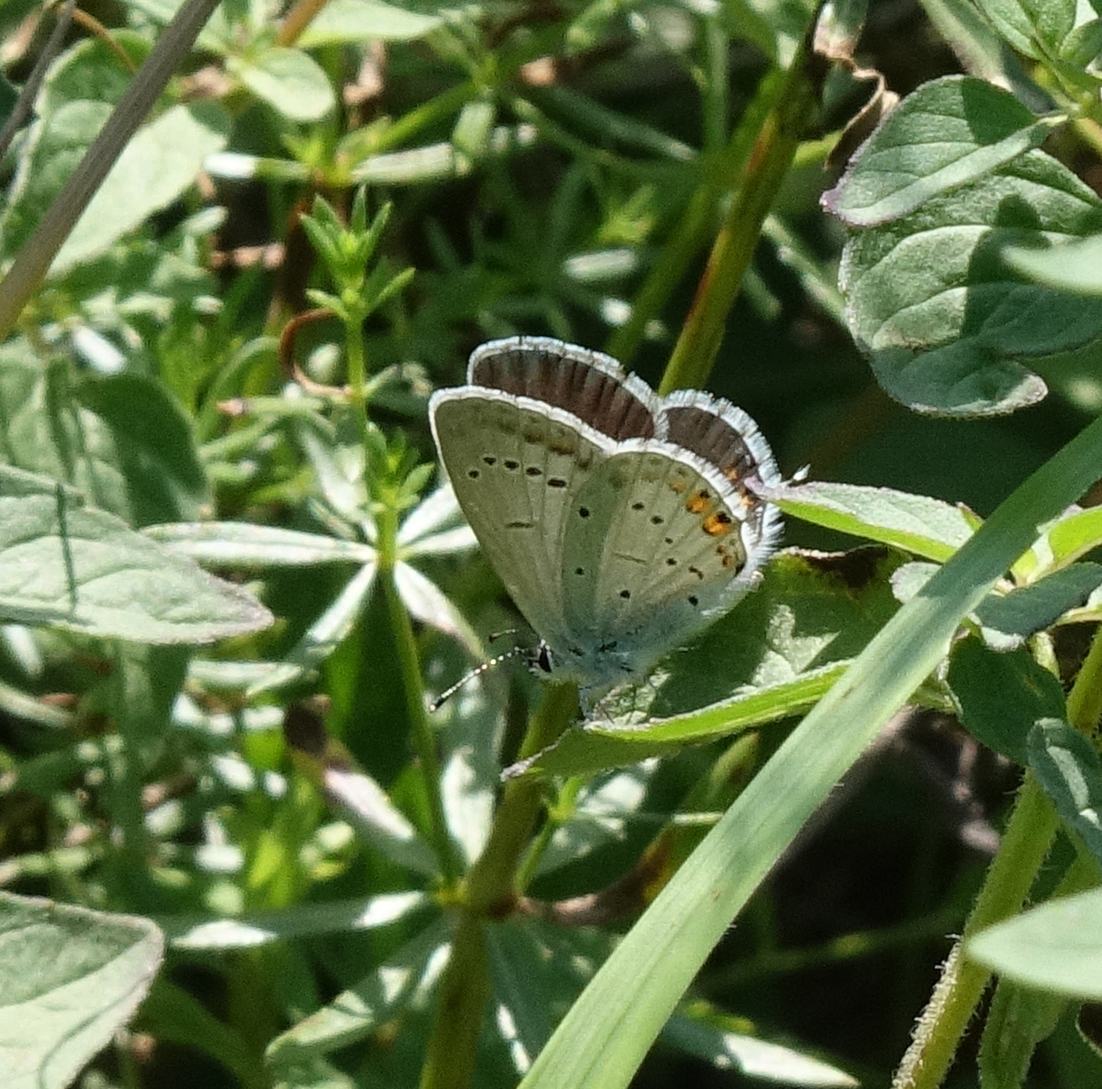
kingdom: Animalia
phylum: Arthropoda
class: Insecta
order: Lepidoptera
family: Lycaenidae
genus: Elkalyce
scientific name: Elkalyce argiades
